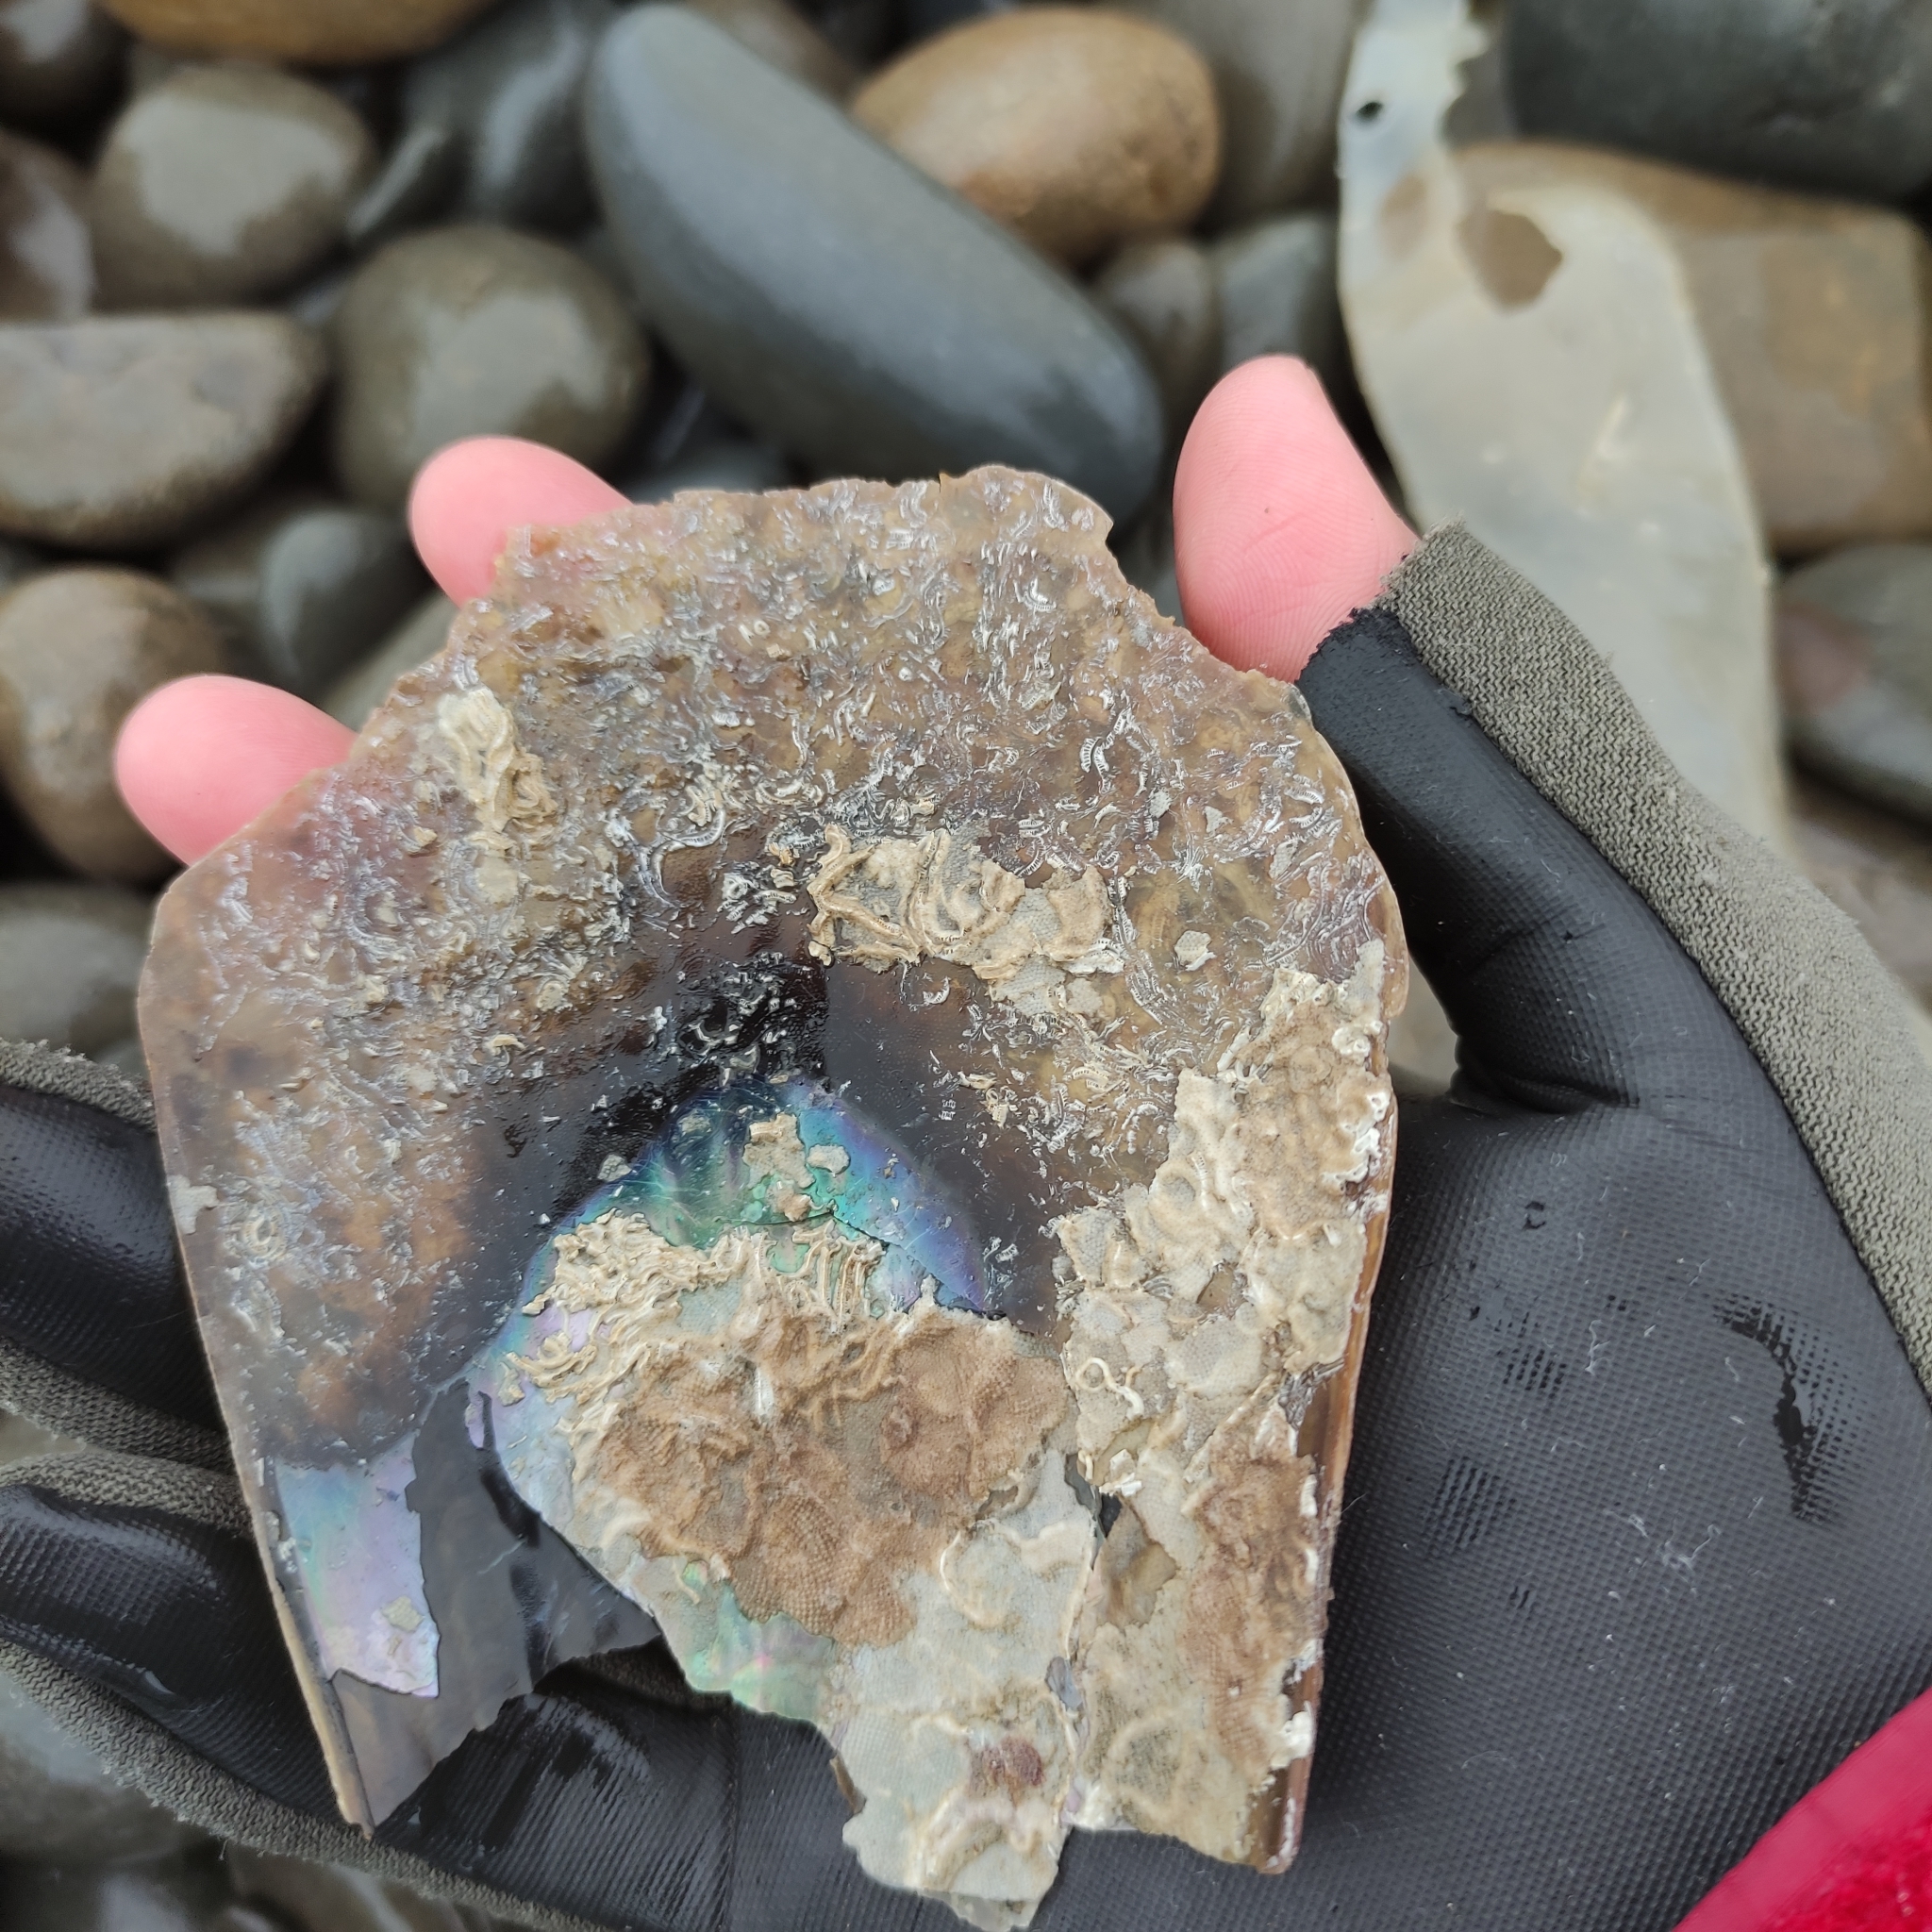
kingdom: Animalia
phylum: Mollusca
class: Bivalvia
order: Ostreida
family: Pinnidae
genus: Atrina
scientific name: Atrina zelandica
